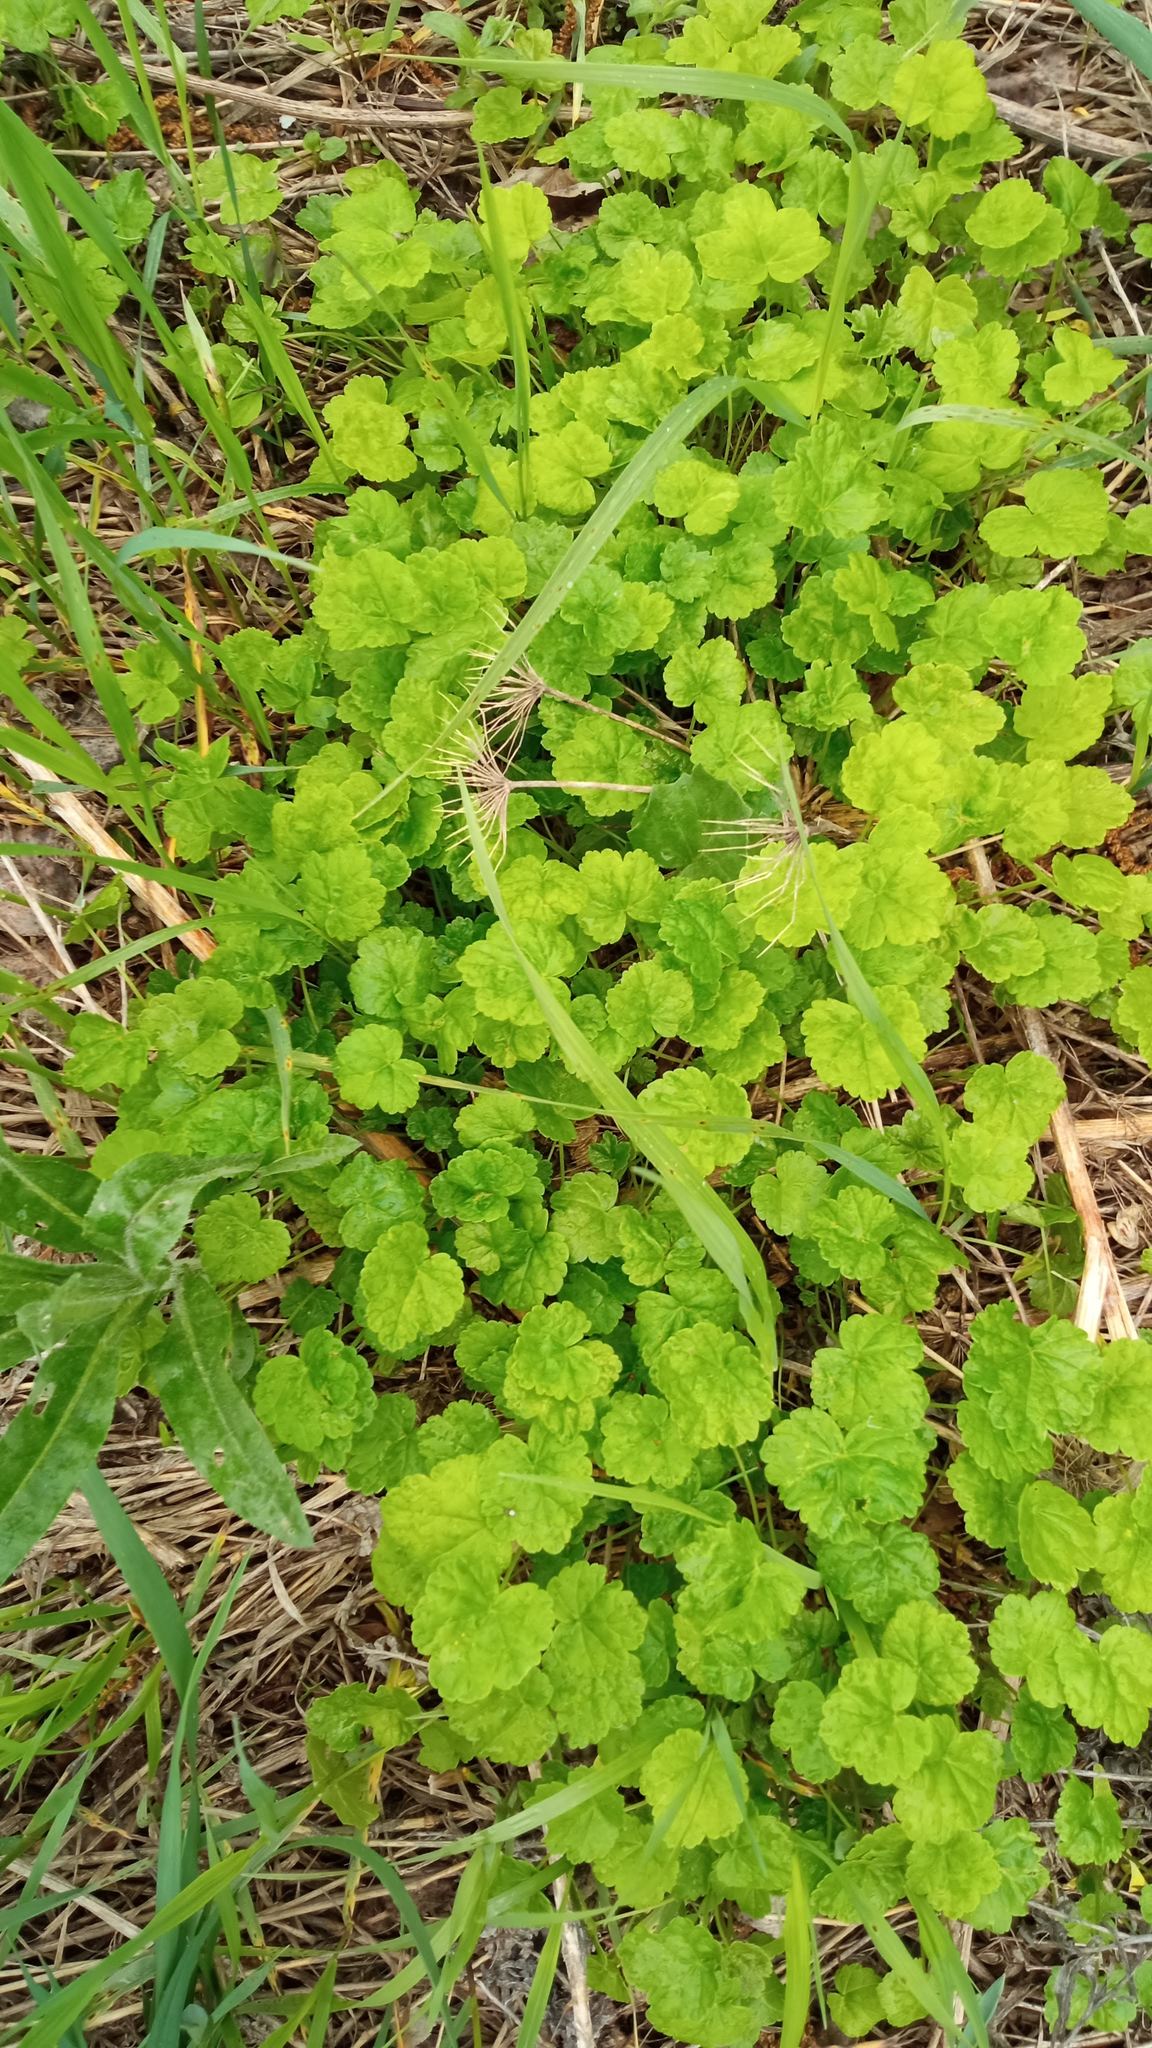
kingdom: Plantae
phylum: Tracheophyta
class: Magnoliopsida
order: Apiales
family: Apiaceae
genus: Heracleum
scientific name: Heracleum sosnowskyi
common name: Sosnowsky's hogweed
